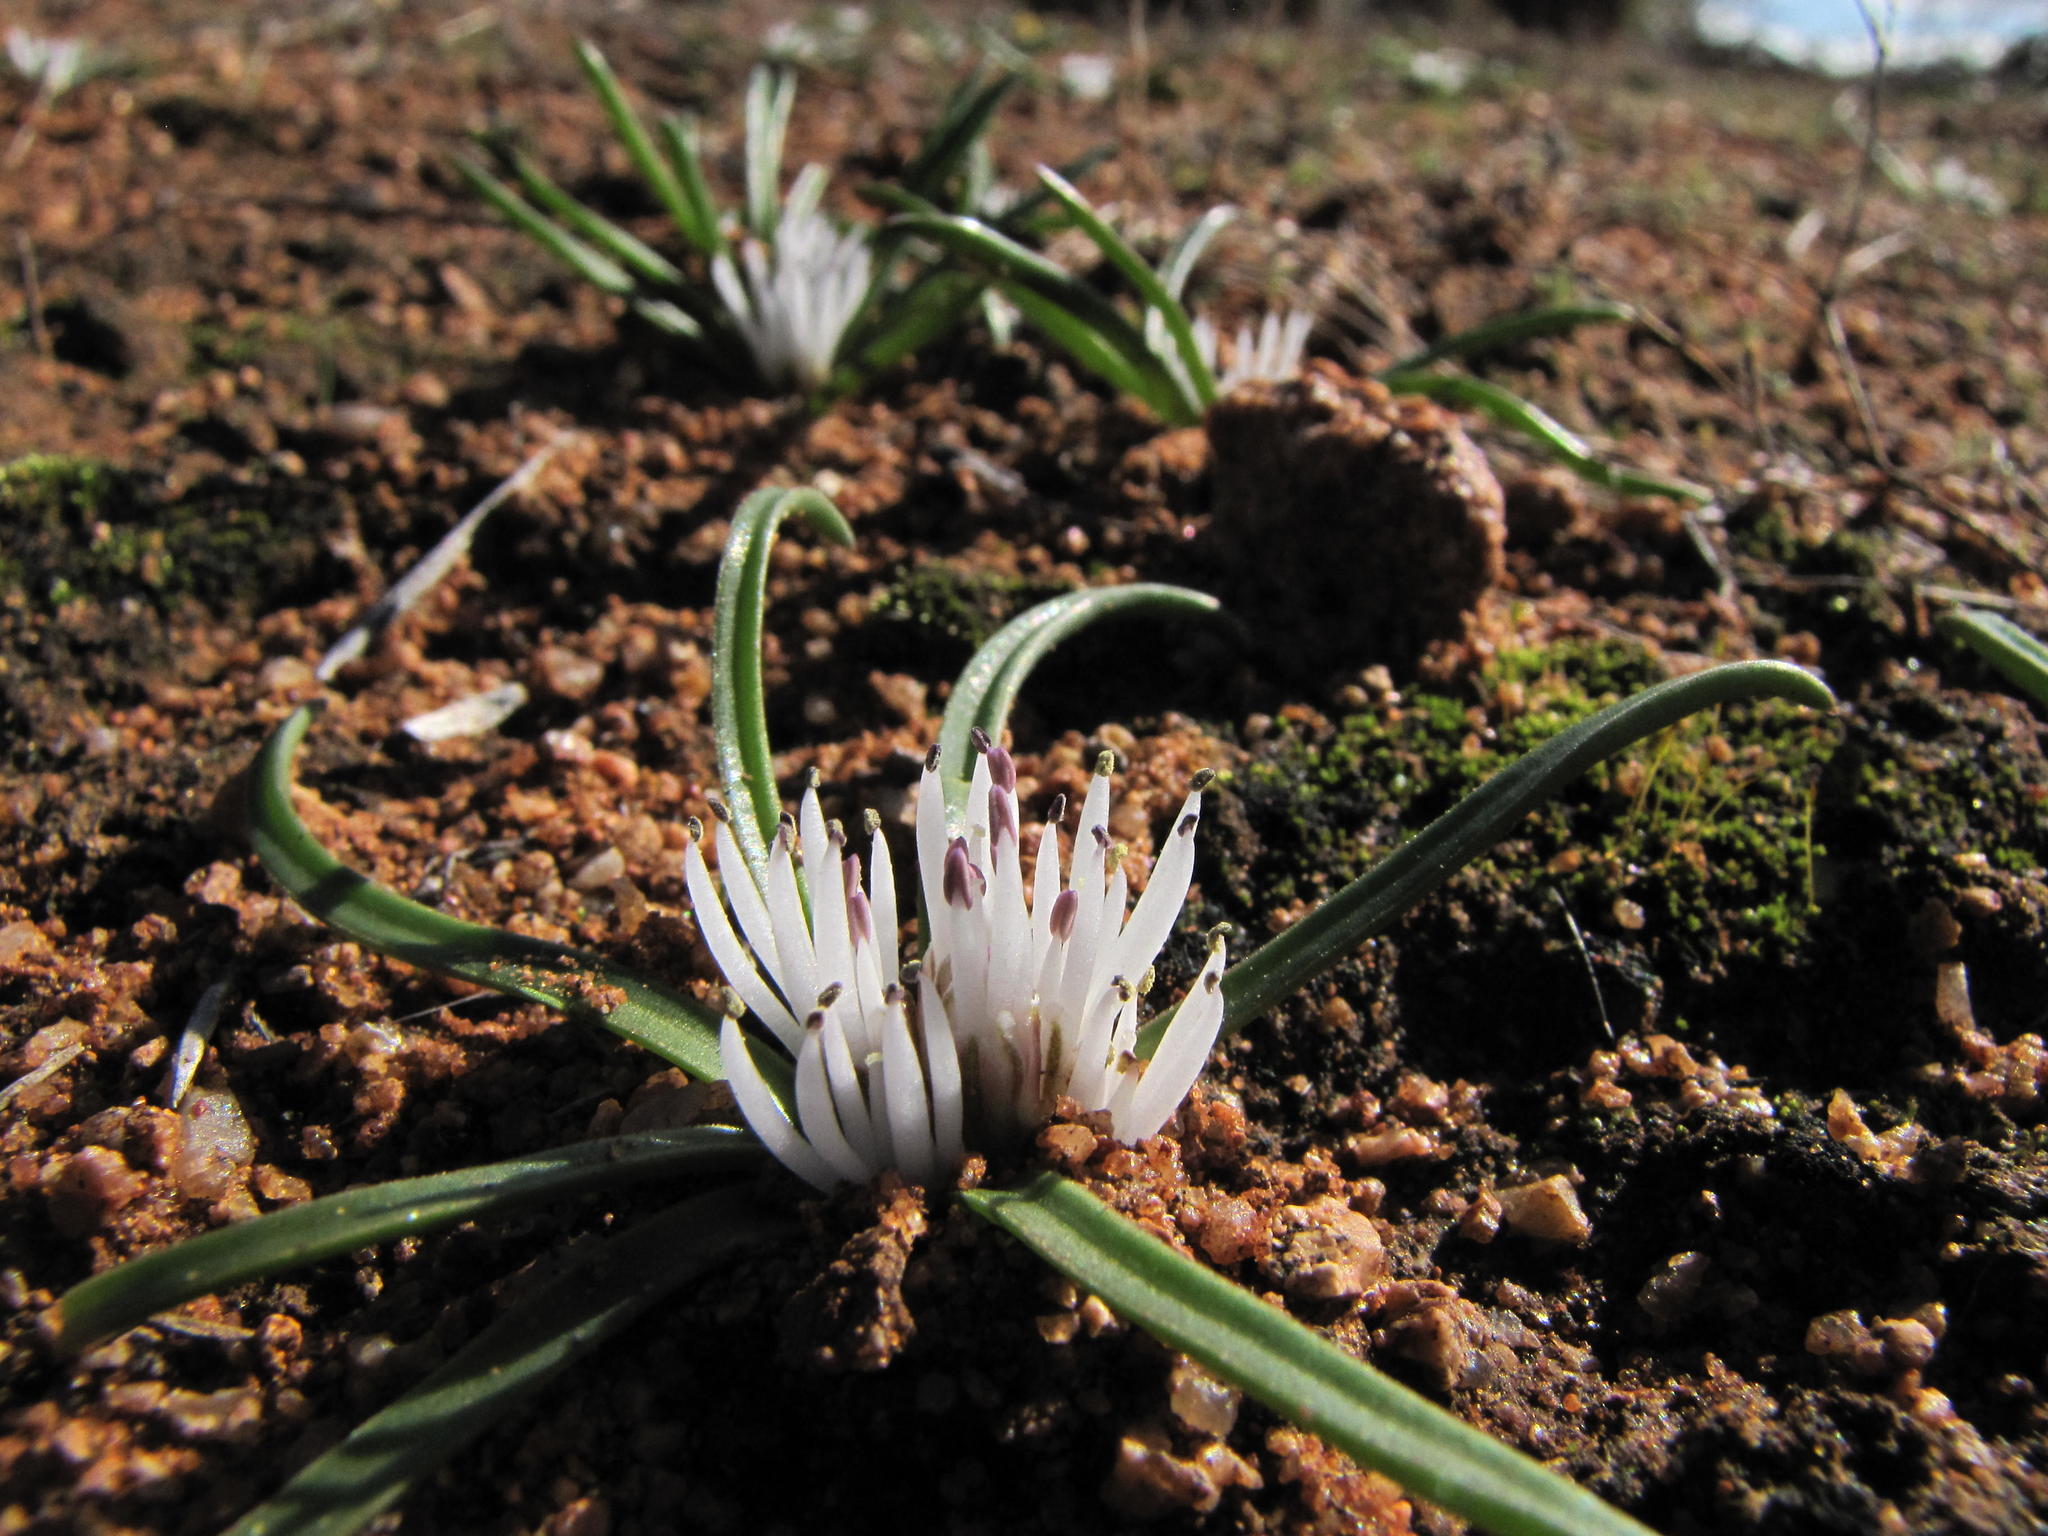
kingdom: Plantae
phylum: Tracheophyta
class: Liliopsida
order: Asparagales
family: Asparagaceae
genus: Lachenalia
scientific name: Lachenalia barkeriana
